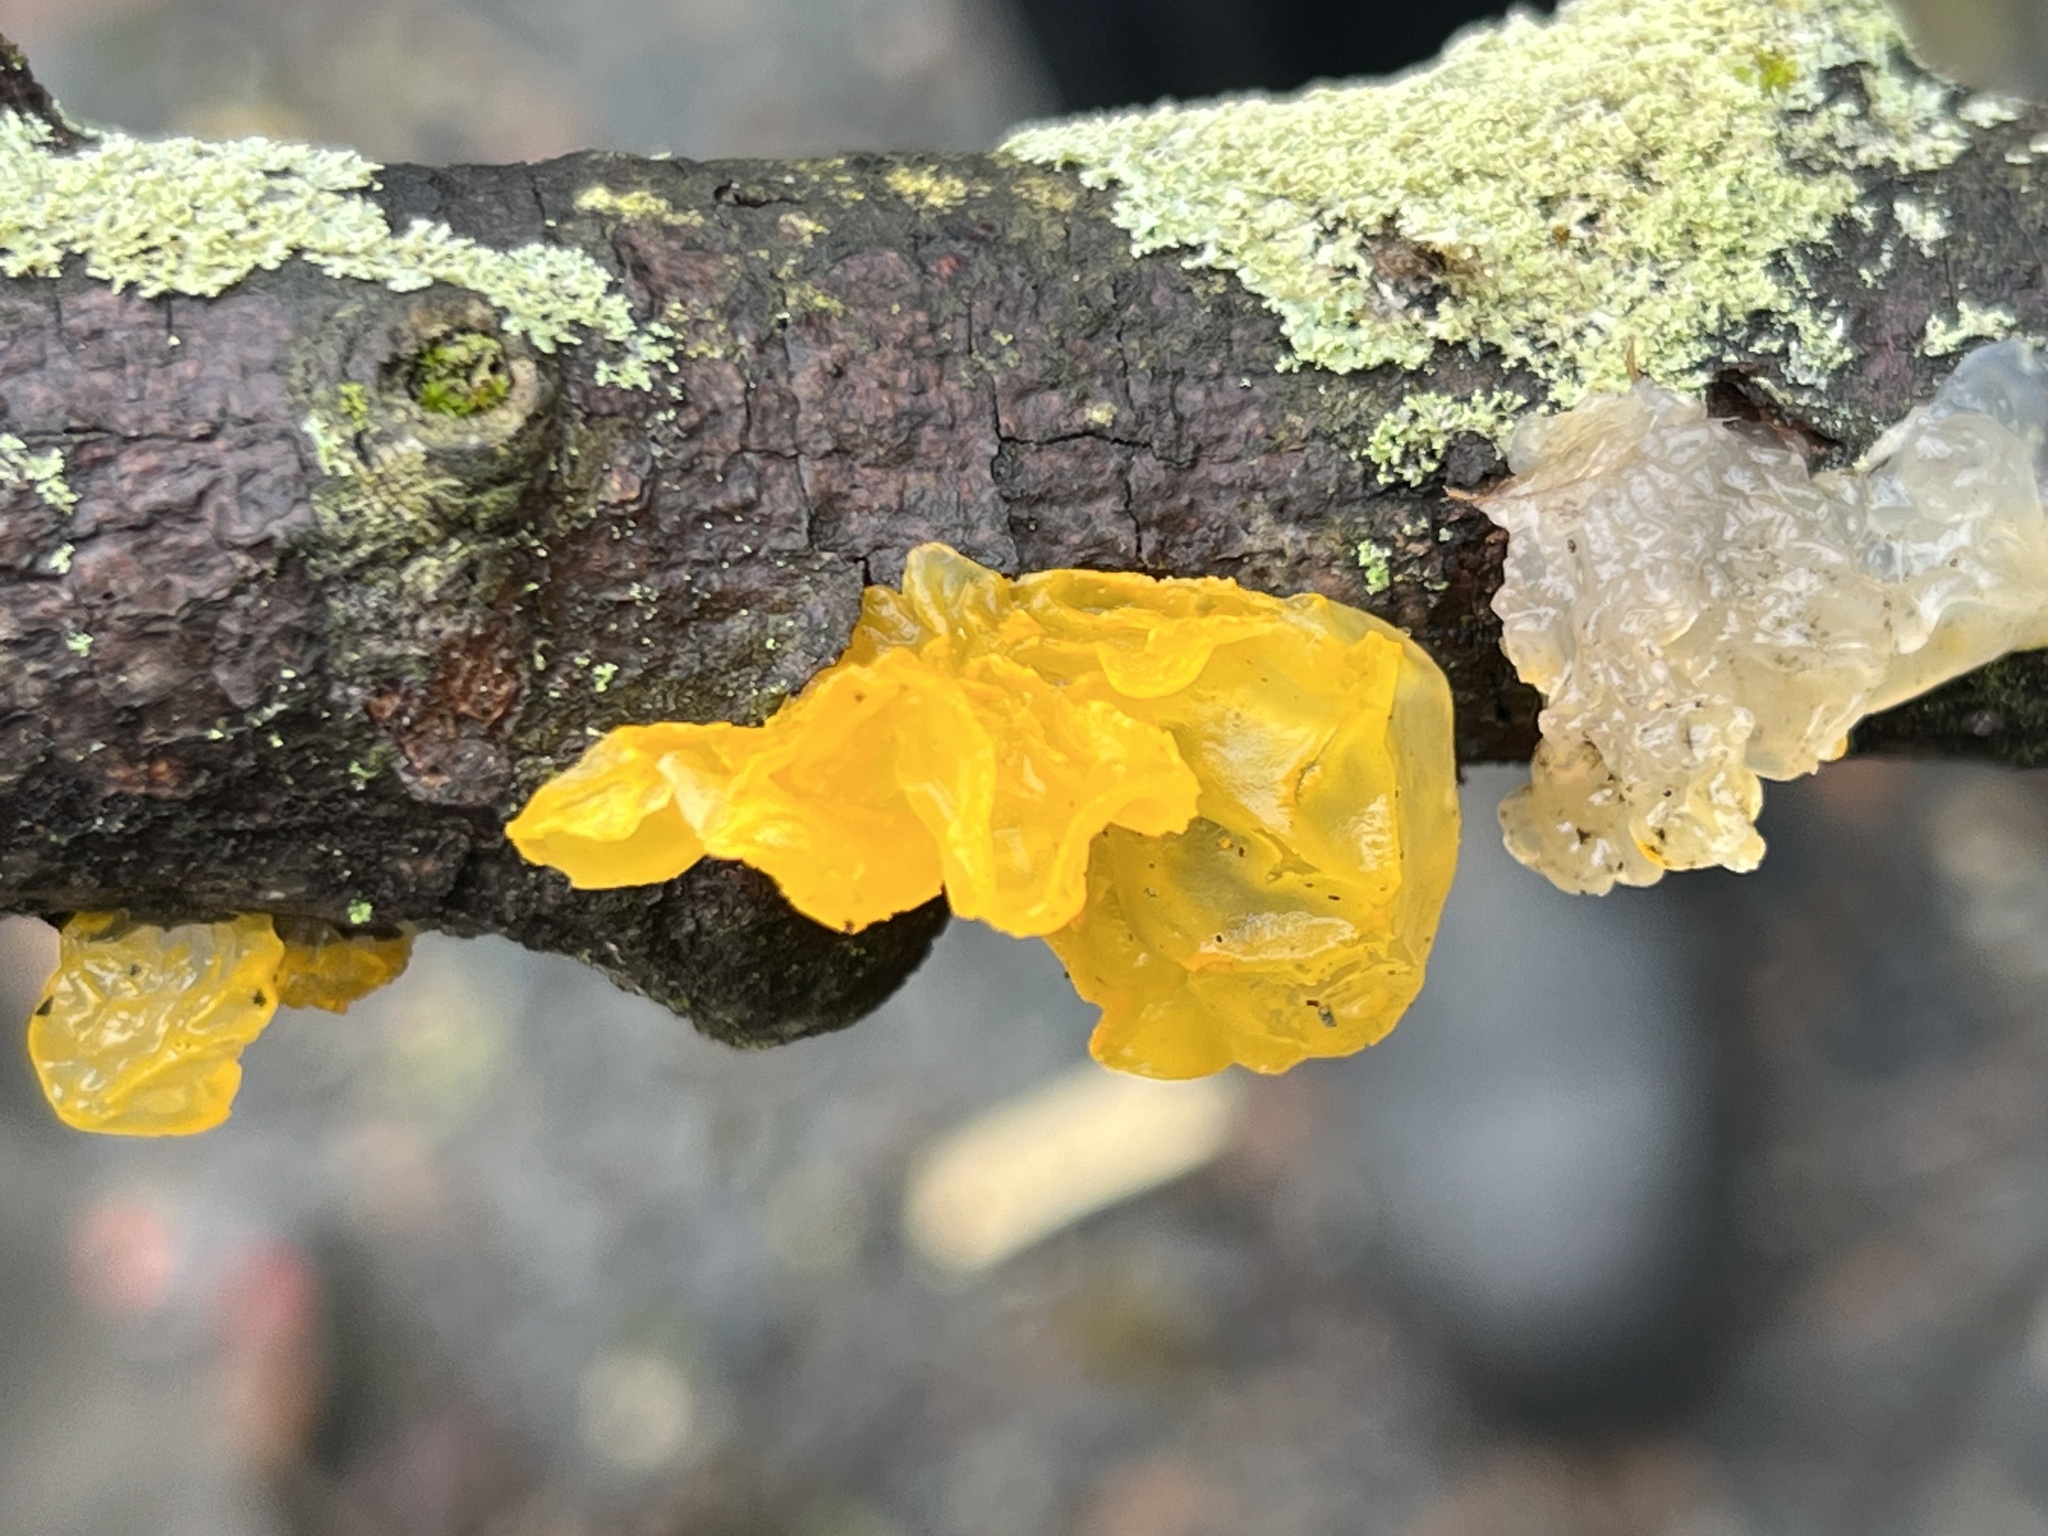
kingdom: Fungi
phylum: Basidiomycota
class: Tremellomycetes
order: Tremellales
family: Tremellaceae
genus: Tremella
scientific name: Tremella mesenterica
